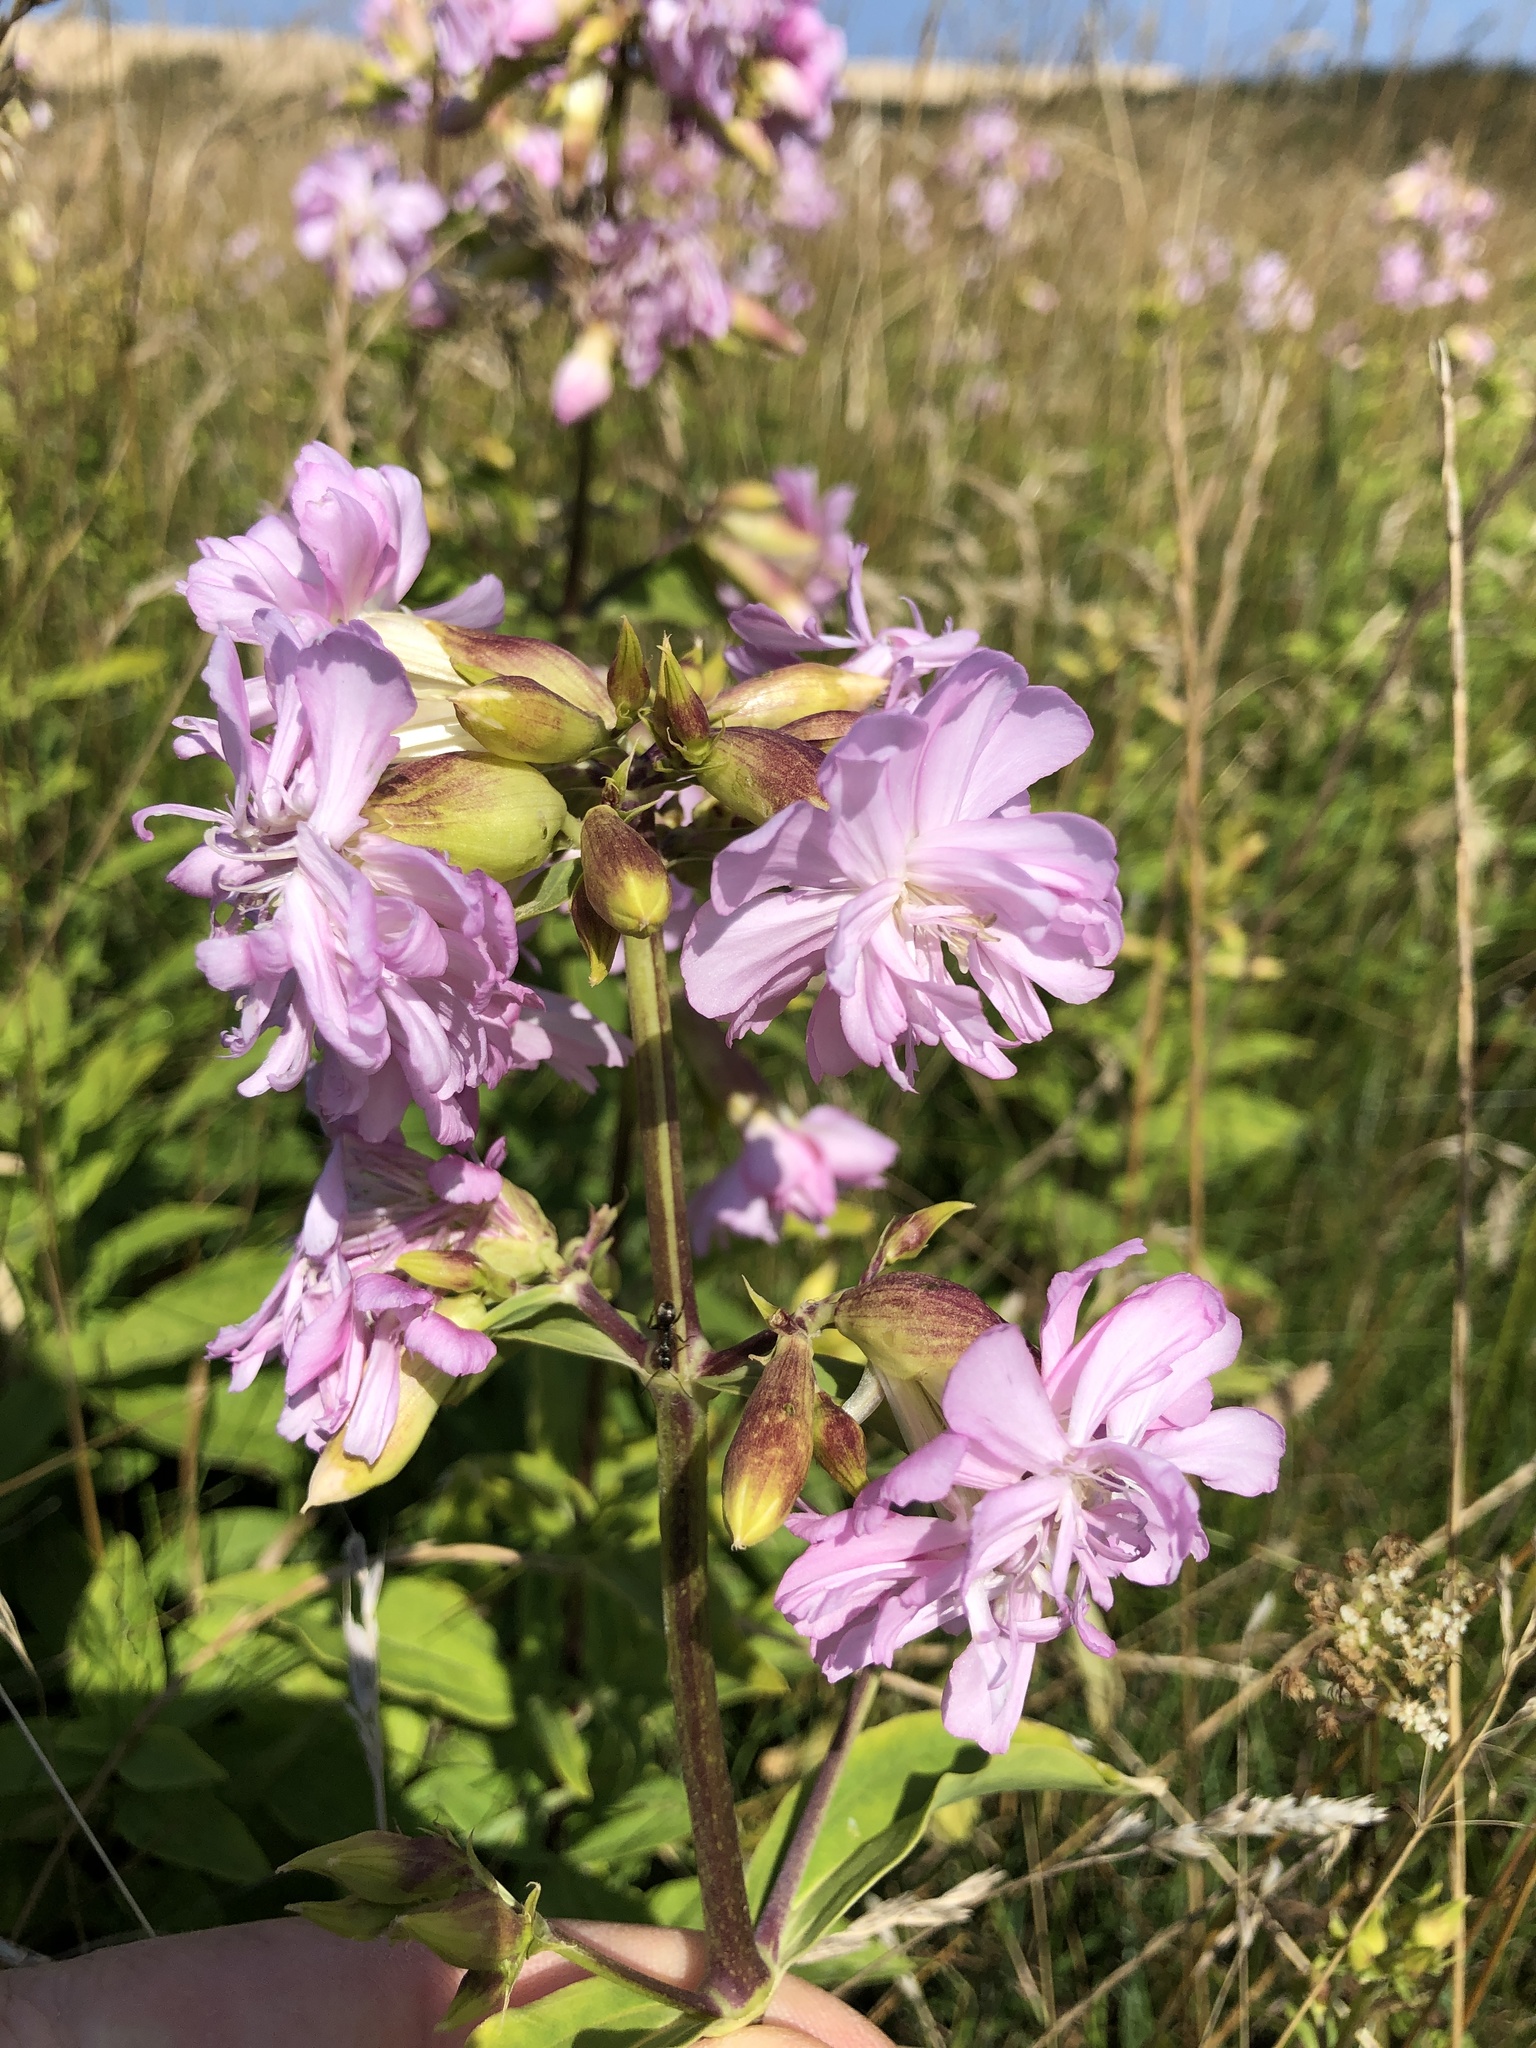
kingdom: Plantae
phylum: Tracheophyta
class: Magnoliopsida
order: Caryophyllales
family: Caryophyllaceae
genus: Saponaria
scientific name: Saponaria officinalis
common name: Soapwort
